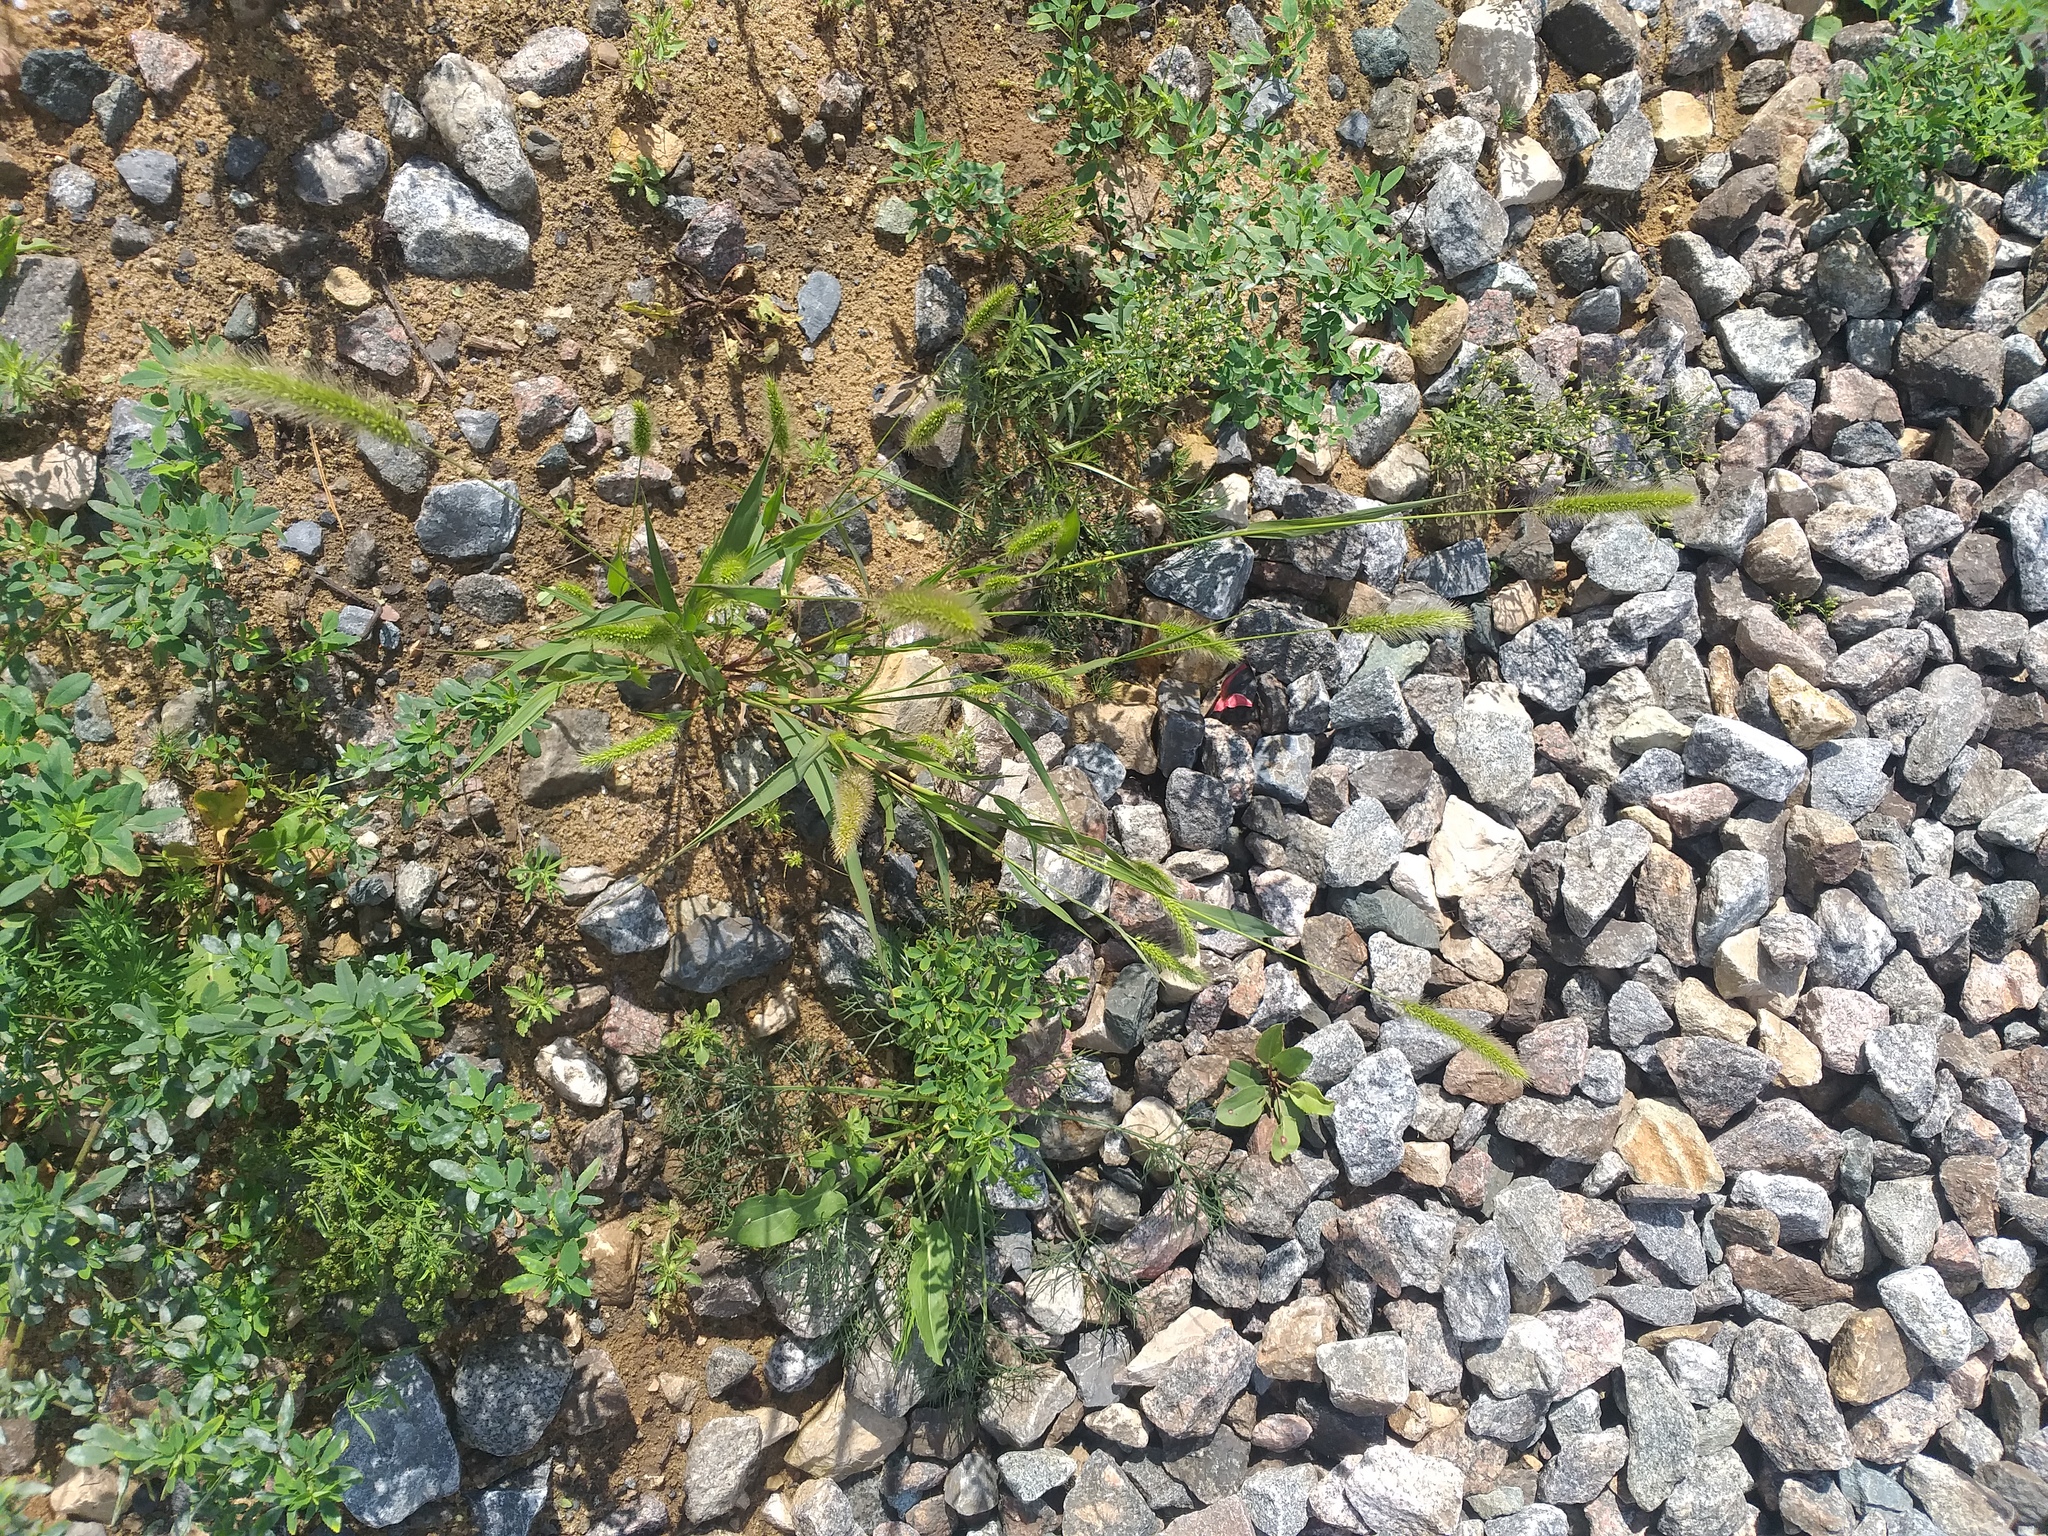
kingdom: Plantae
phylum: Tracheophyta
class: Liliopsida
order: Poales
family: Poaceae
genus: Setaria
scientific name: Setaria viridis
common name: Green bristlegrass
